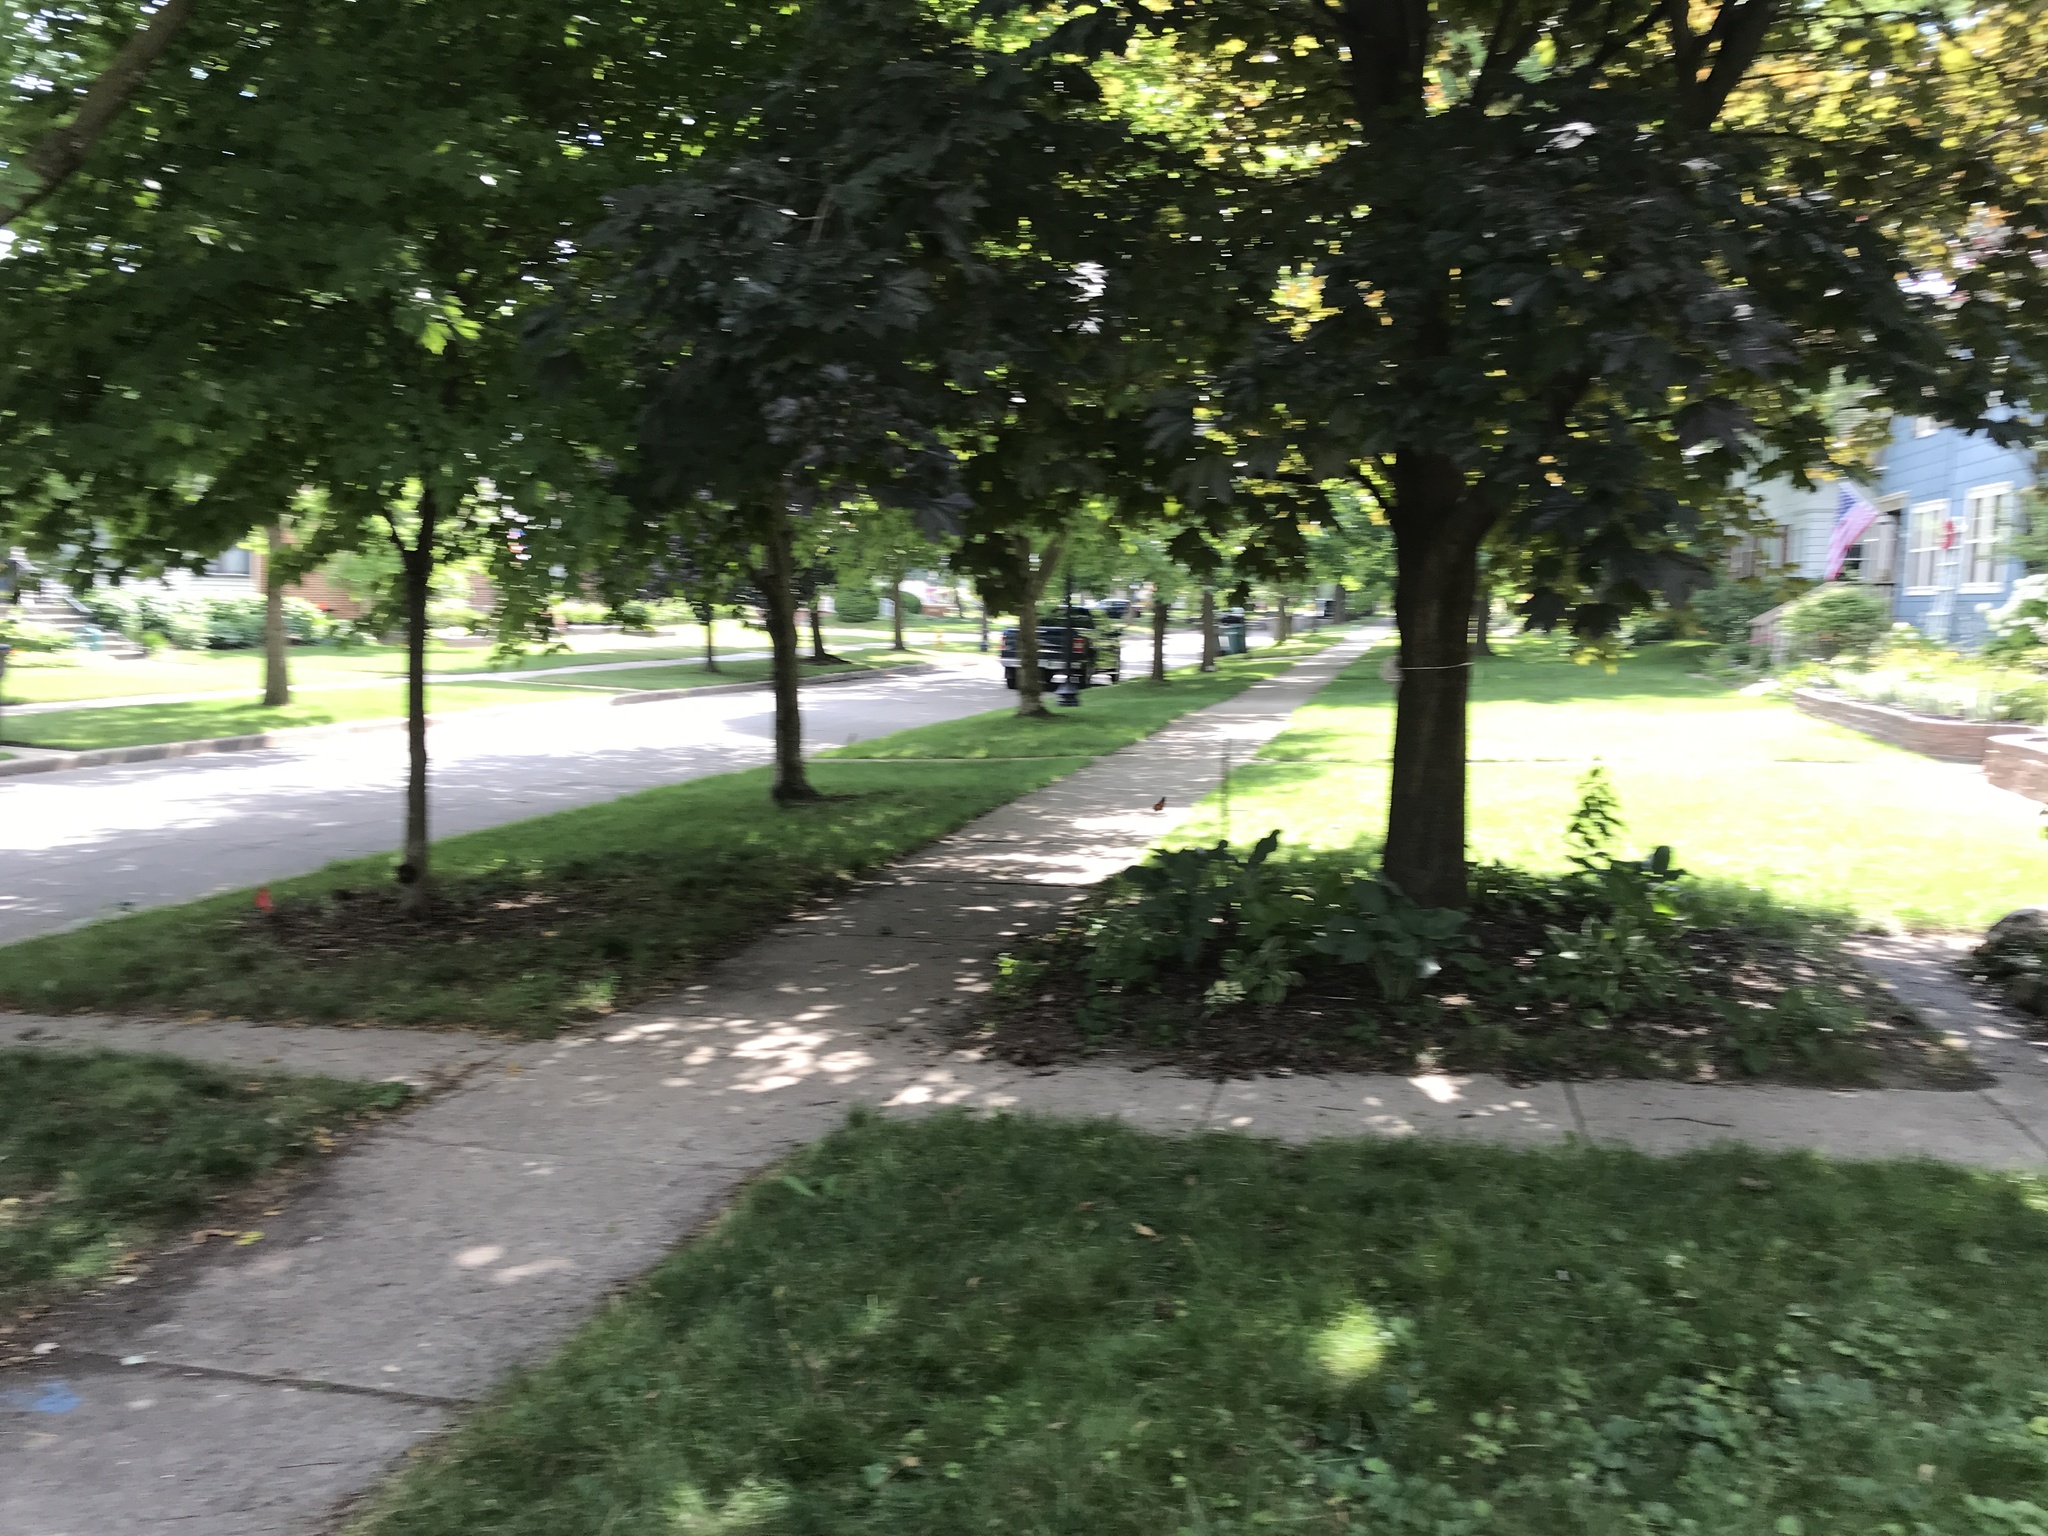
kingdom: Animalia
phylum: Arthropoda
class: Insecta
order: Lepidoptera
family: Nymphalidae
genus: Danaus
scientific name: Danaus plexippus
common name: Monarch
